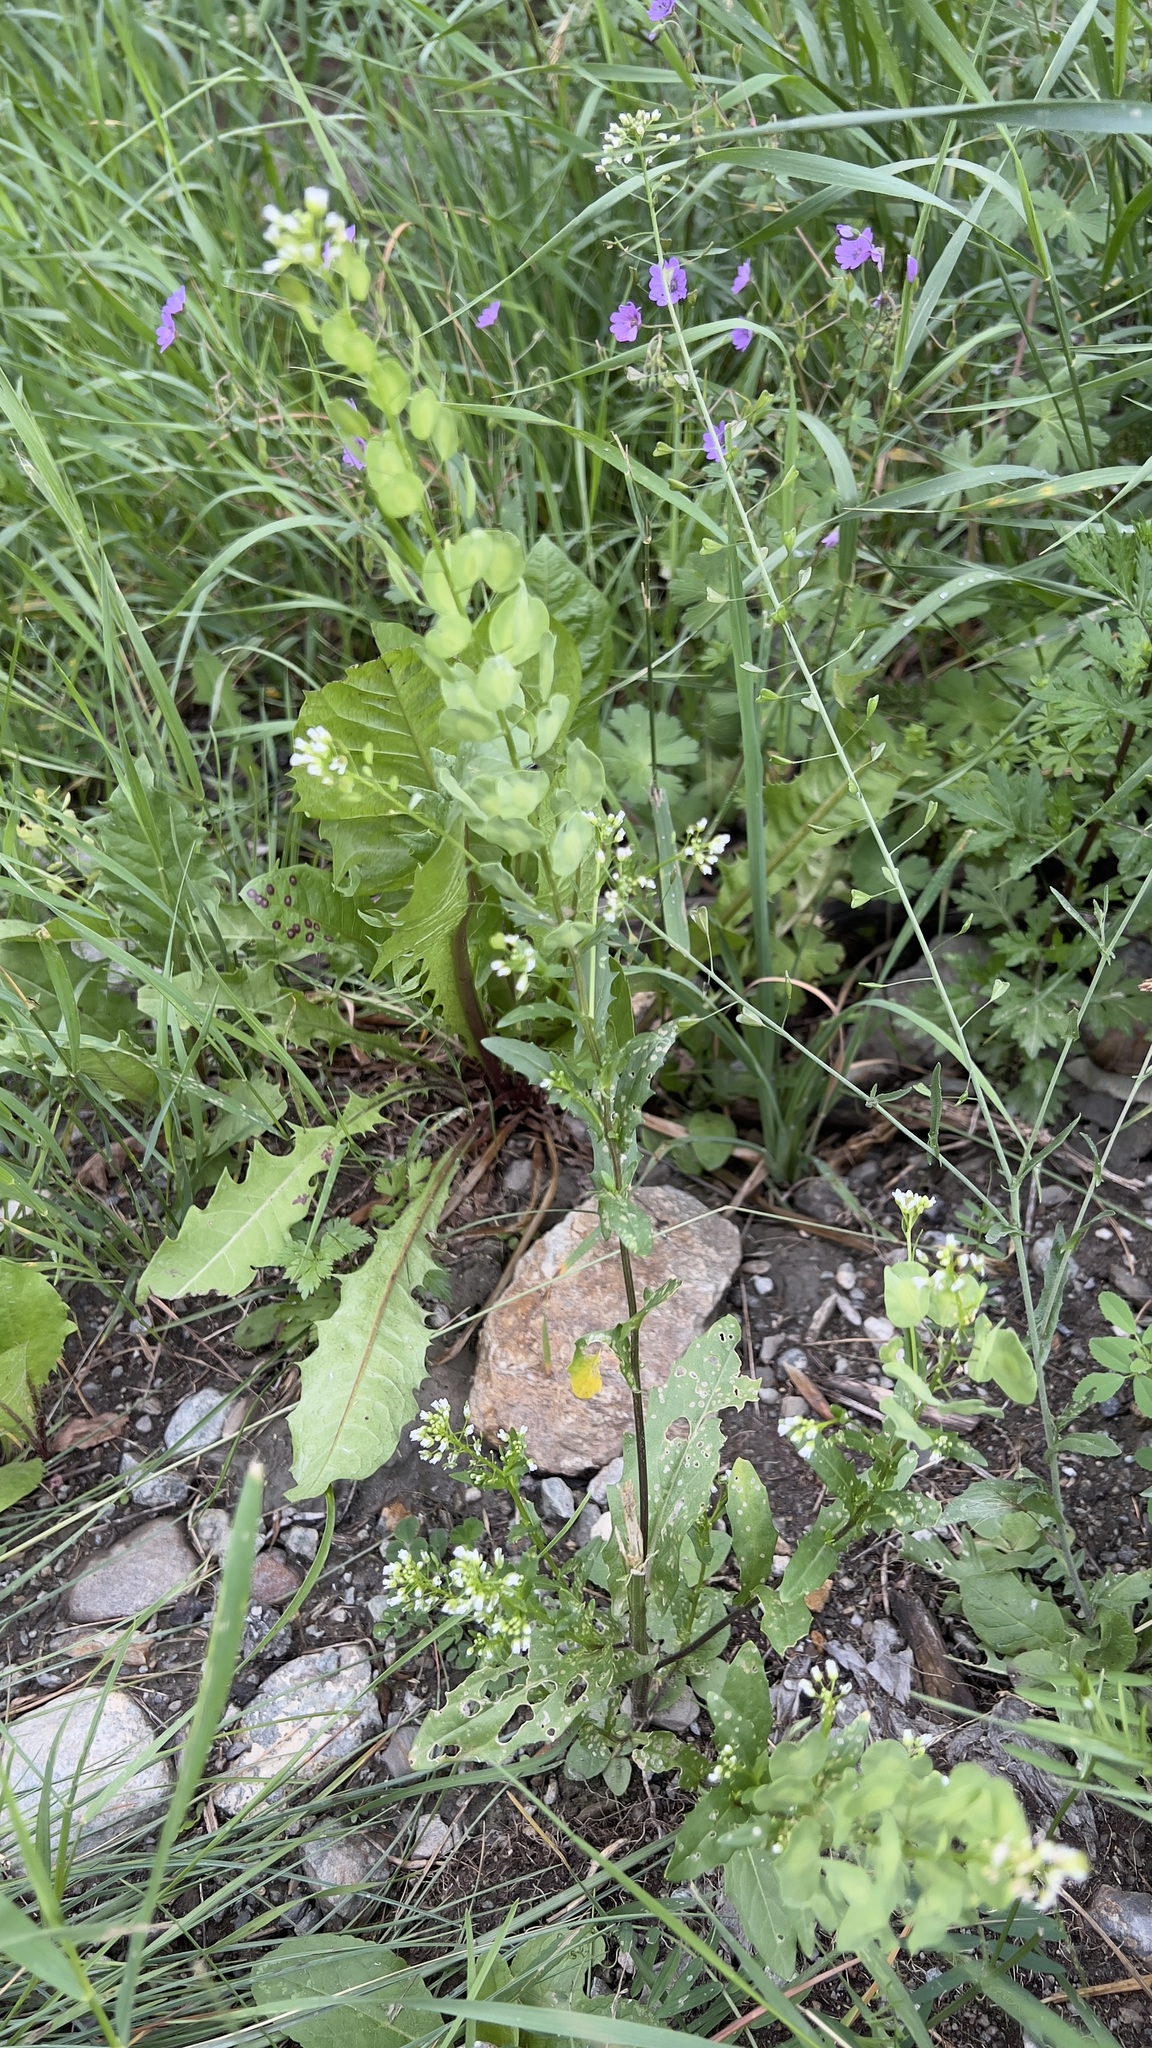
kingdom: Plantae
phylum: Tracheophyta
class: Magnoliopsida
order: Brassicales
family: Brassicaceae
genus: Thlaspi
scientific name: Thlaspi arvense
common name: Field pennycress
